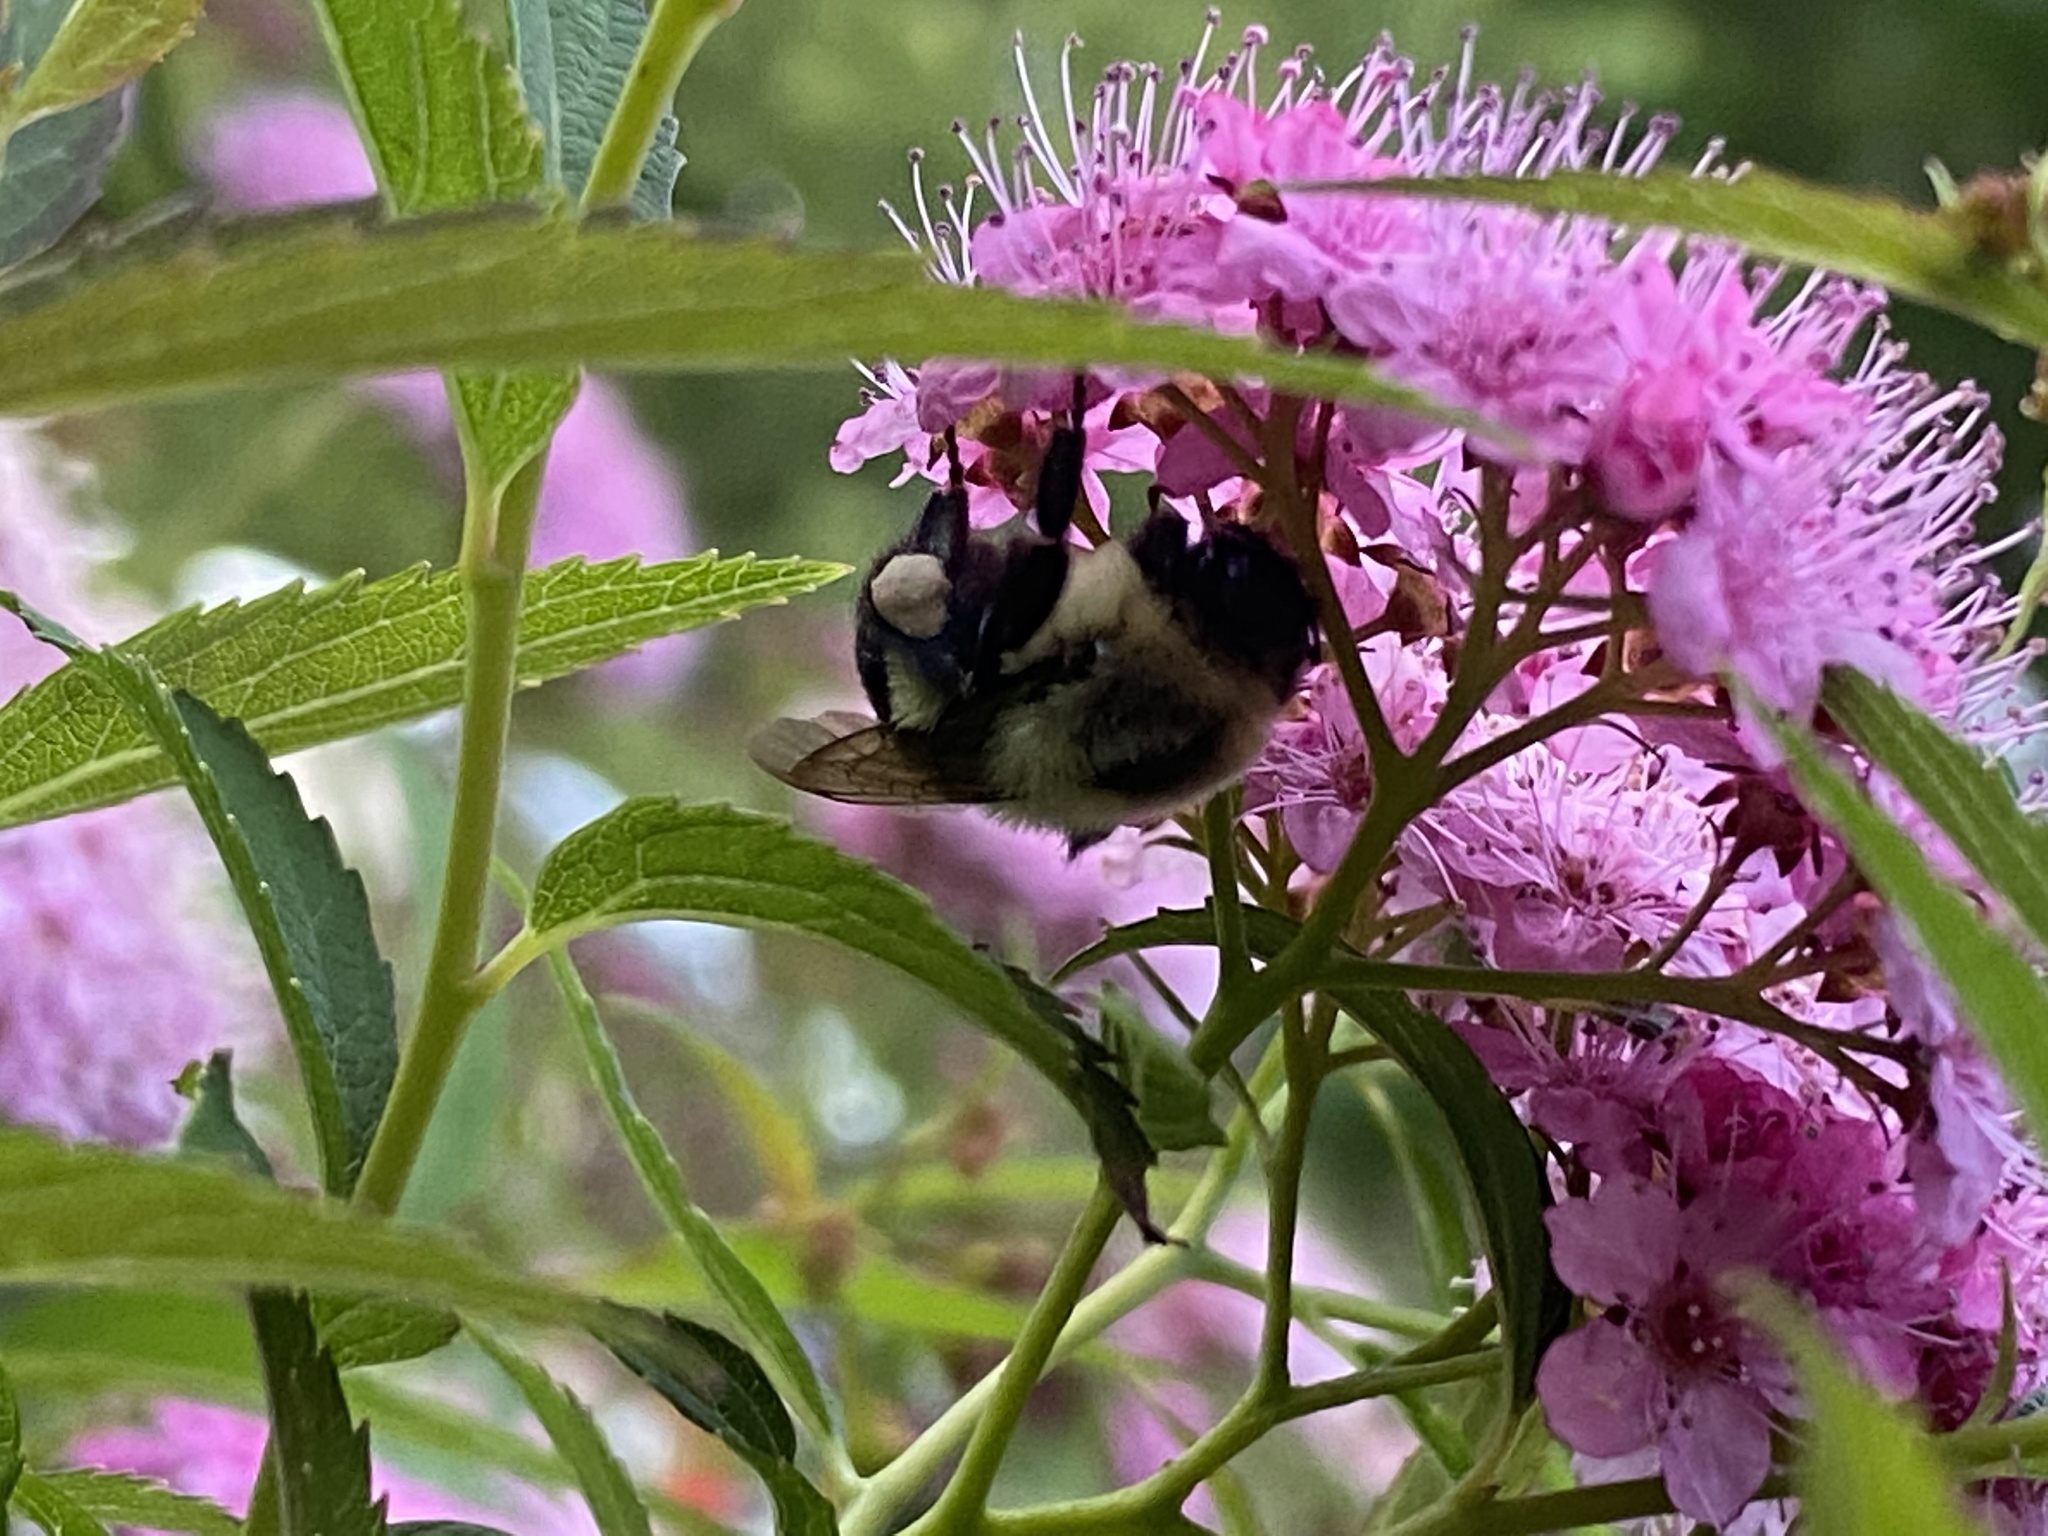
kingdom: Animalia
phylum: Arthropoda
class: Insecta
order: Hymenoptera
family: Apidae
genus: Bombus
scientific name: Bombus impatiens
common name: Common eastern bumble bee
